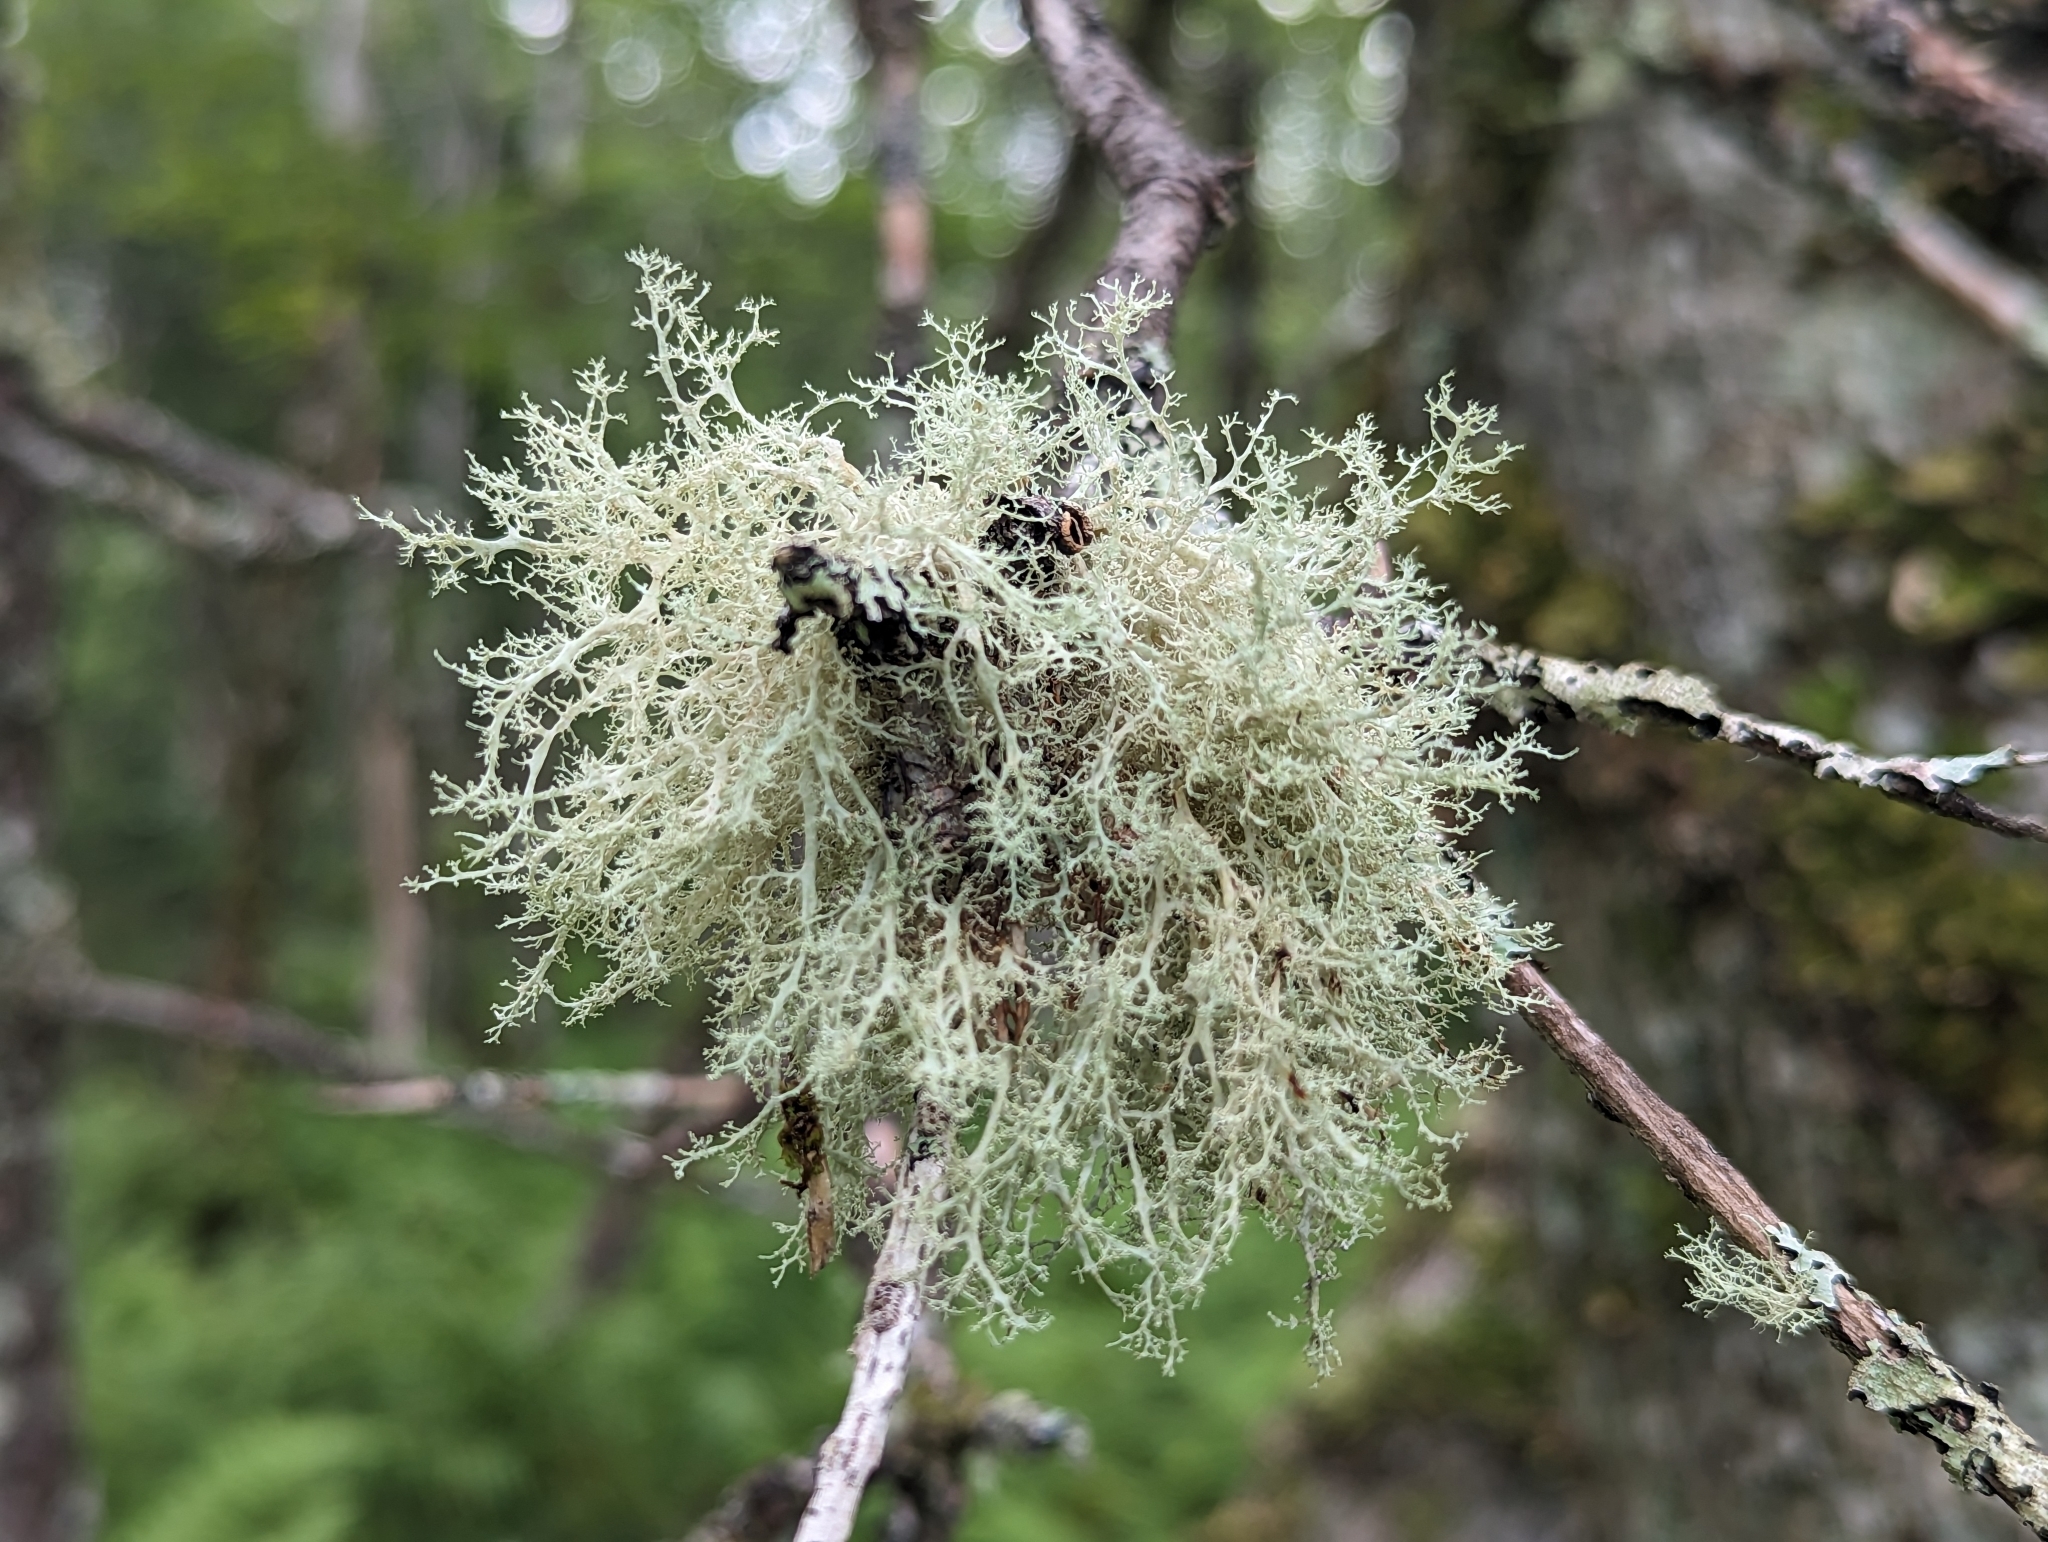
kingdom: Fungi
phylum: Ascomycota
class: Lecanoromycetes
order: Lecanorales
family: Ramalinaceae
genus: Ramalina
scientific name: Ramalina roesleri
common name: Frayed ribbon lichen
